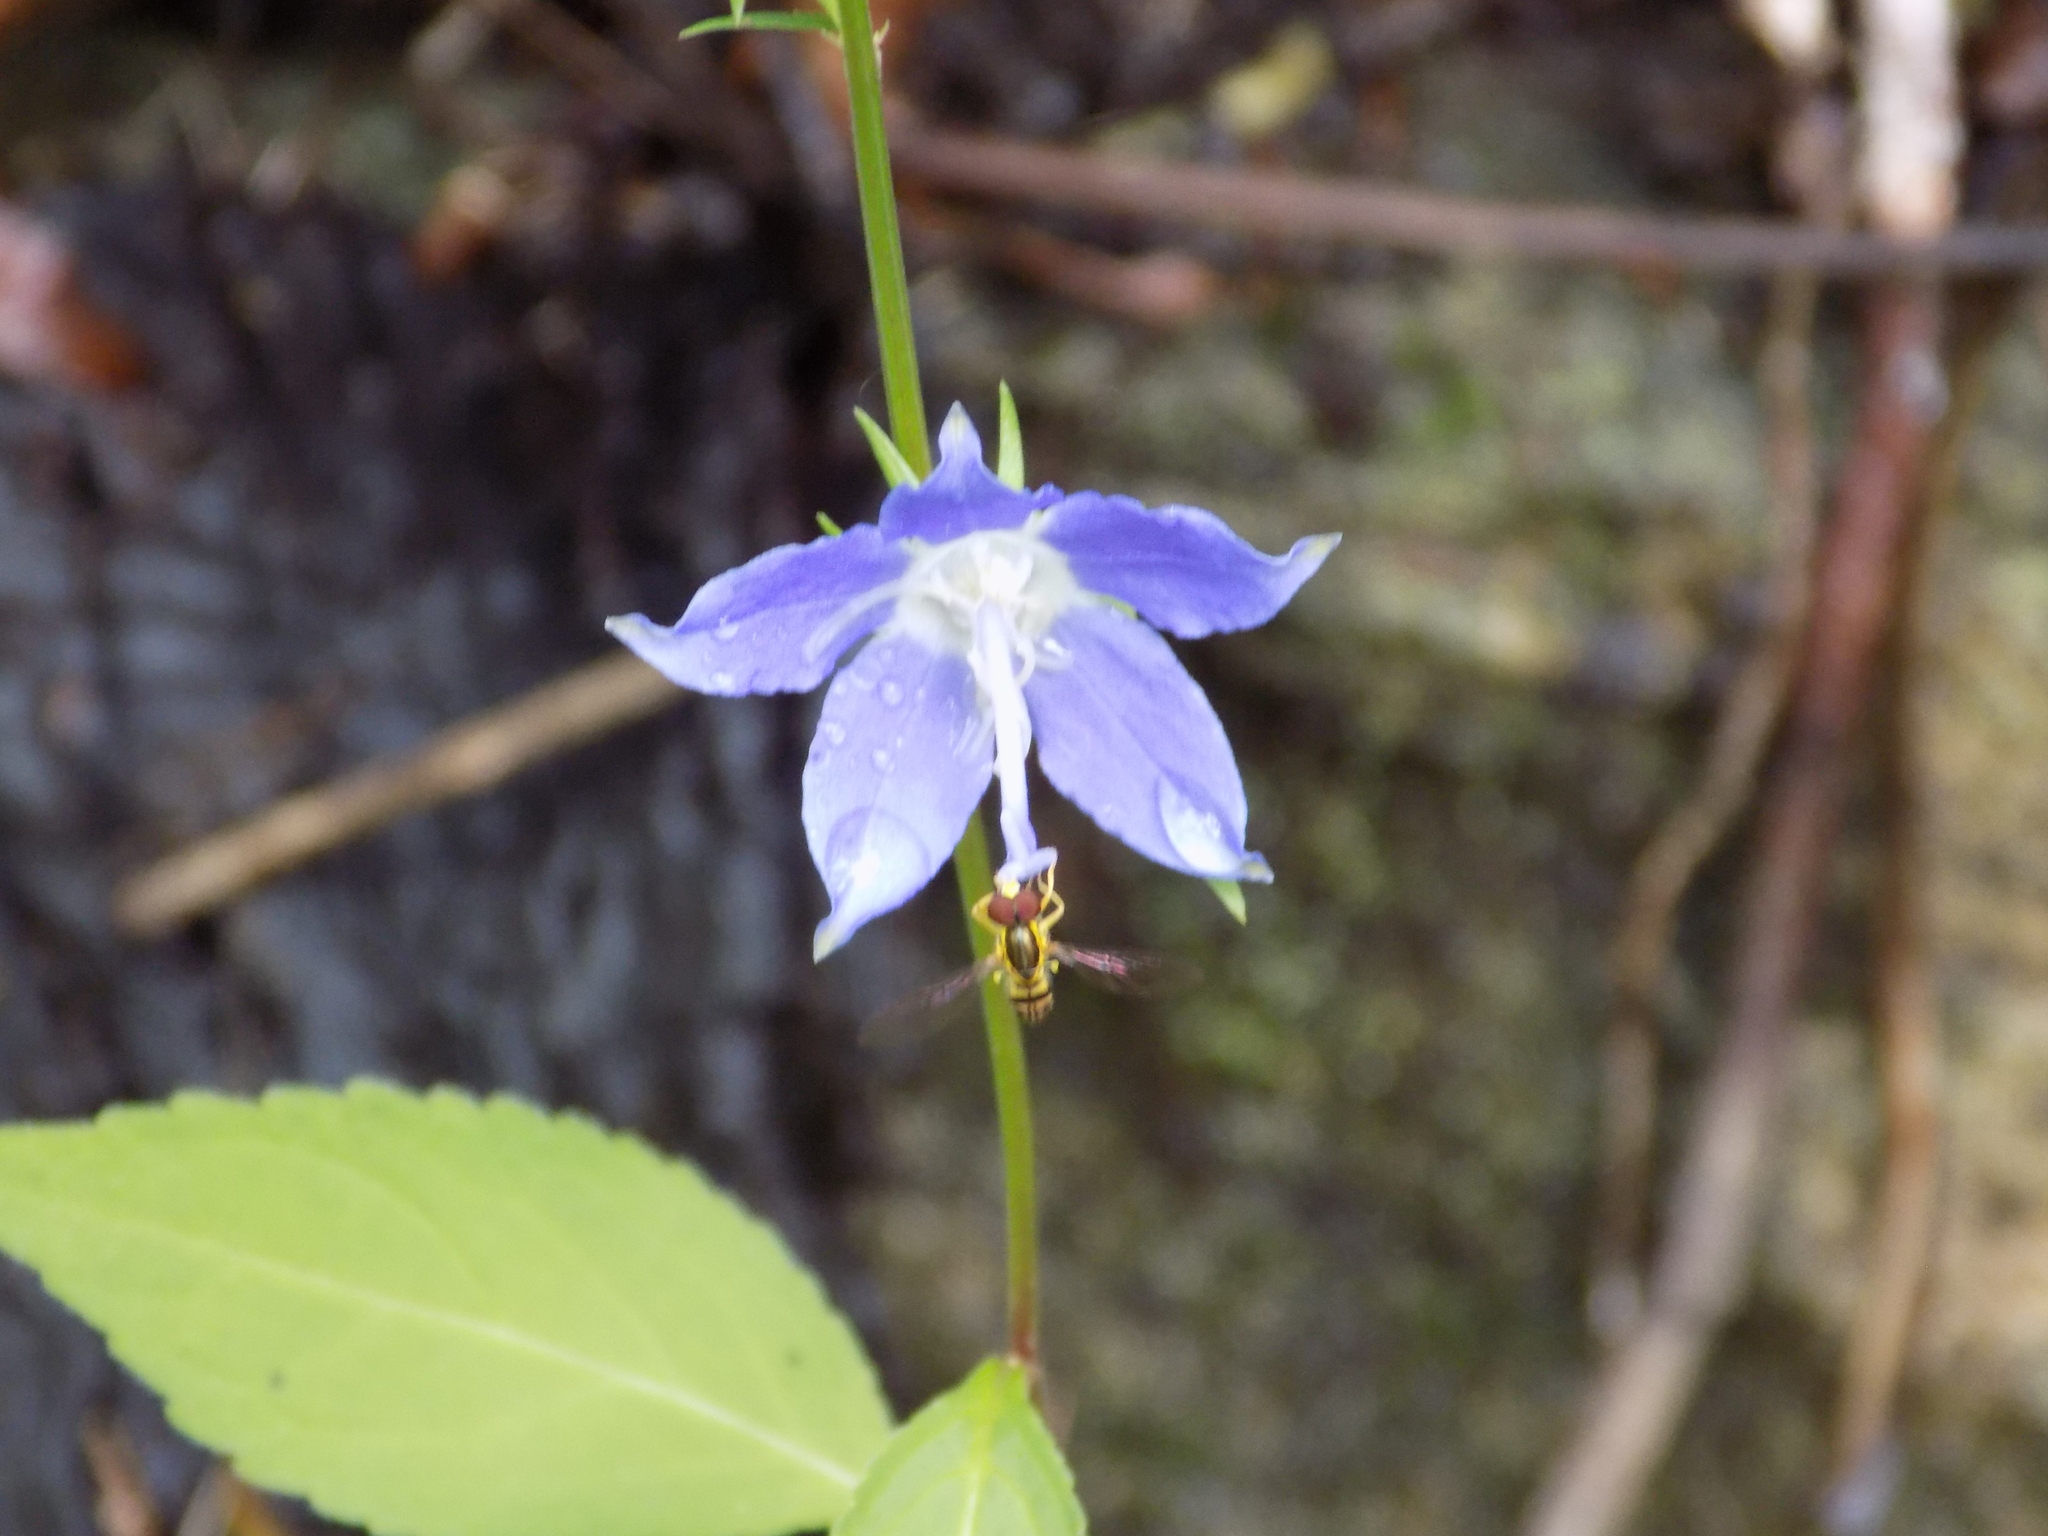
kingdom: Animalia
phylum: Arthropoda
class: Insecta
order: Diptera
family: Syrphidae
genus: Toxomerus
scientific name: Toxomerus geminatus
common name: Eastern calligrapher
